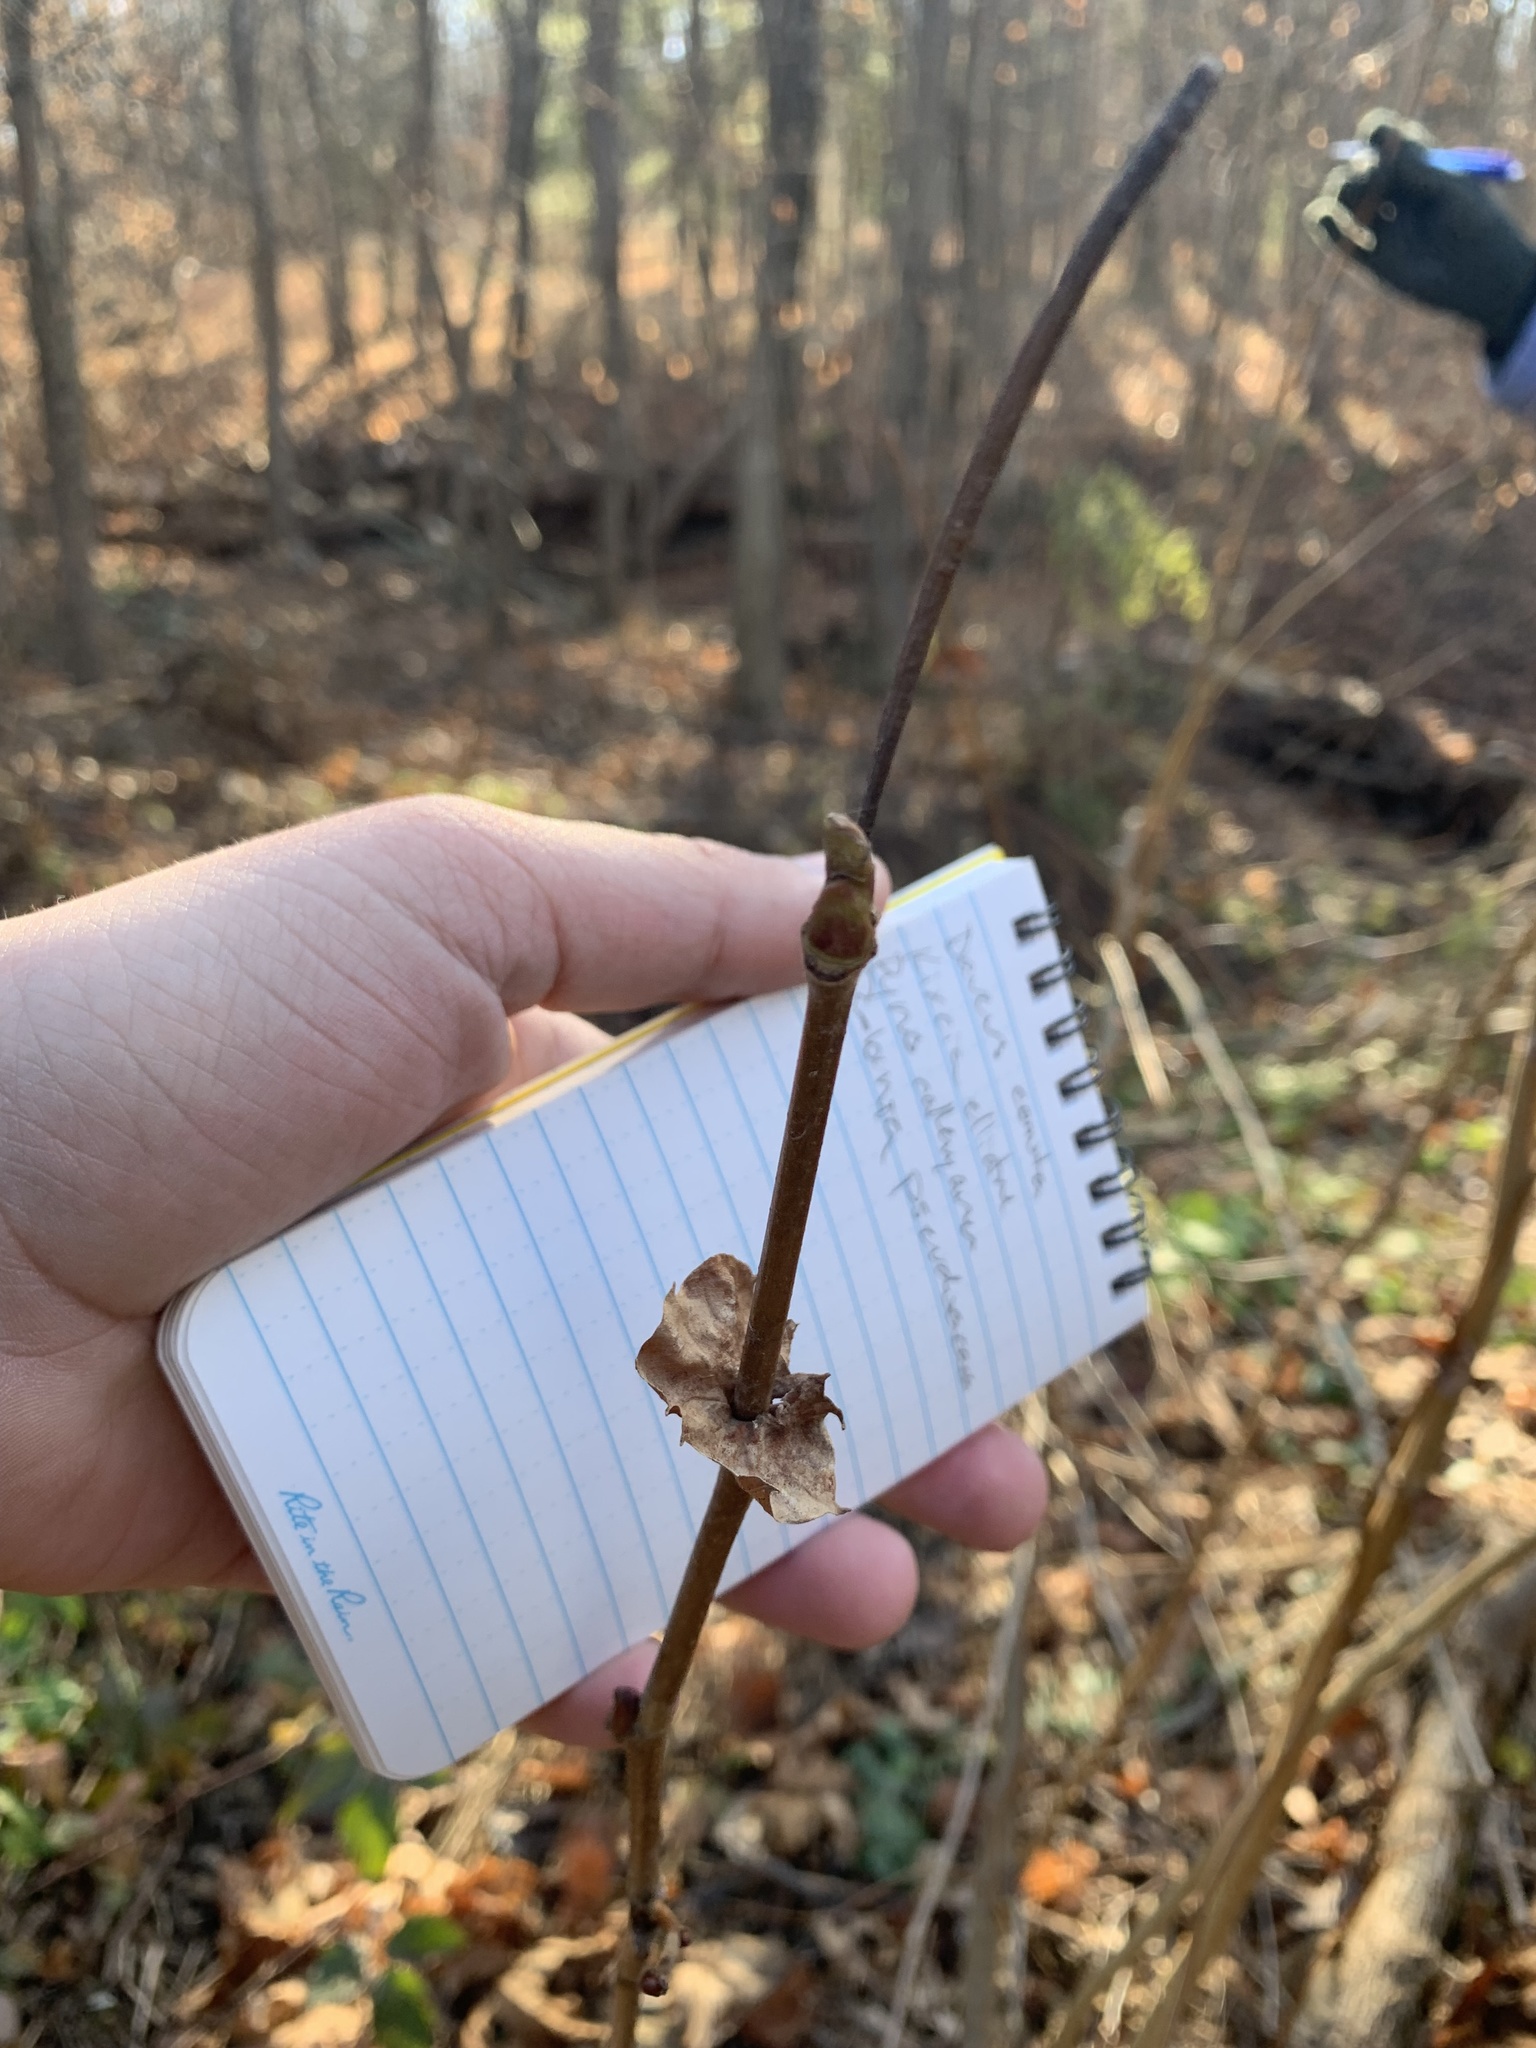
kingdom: Plantae
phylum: Tracheophyta
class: Magnoliopsida
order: Proteales
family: Platanaceae
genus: Platanus
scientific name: Platanus occidentalis
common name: American sycamore
